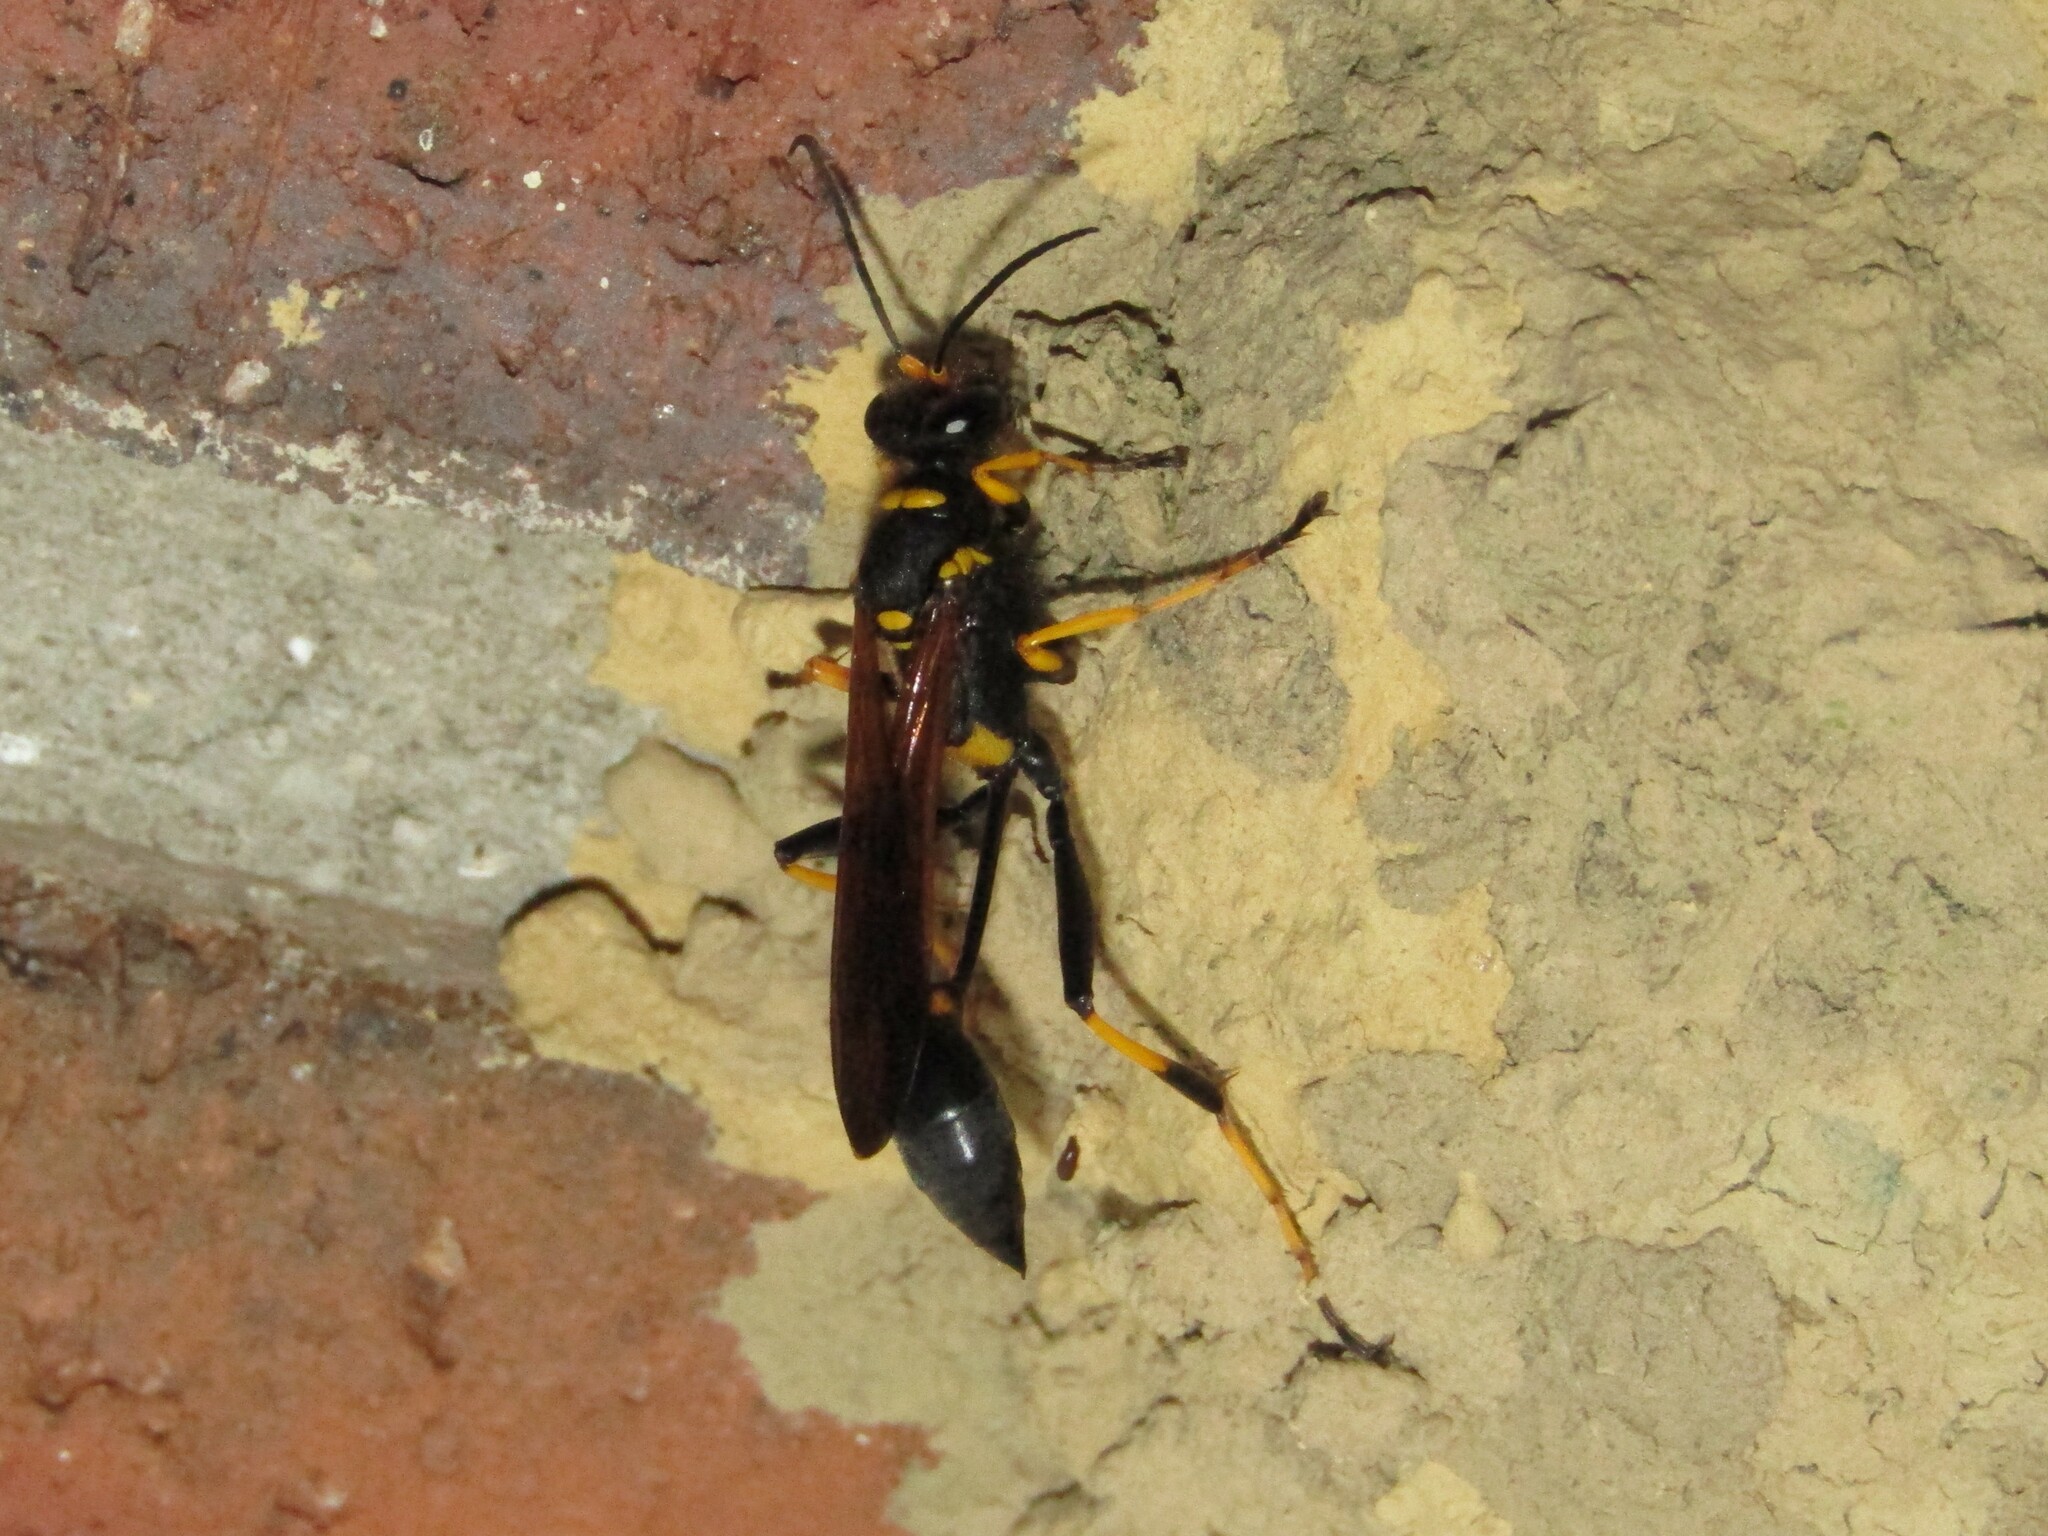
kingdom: Animalia
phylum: Arthropoda
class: Insecta
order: Hymenoptera
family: Sphecidae
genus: Sceliphron
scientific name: Sceliphron caementarium
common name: Mud dauber
